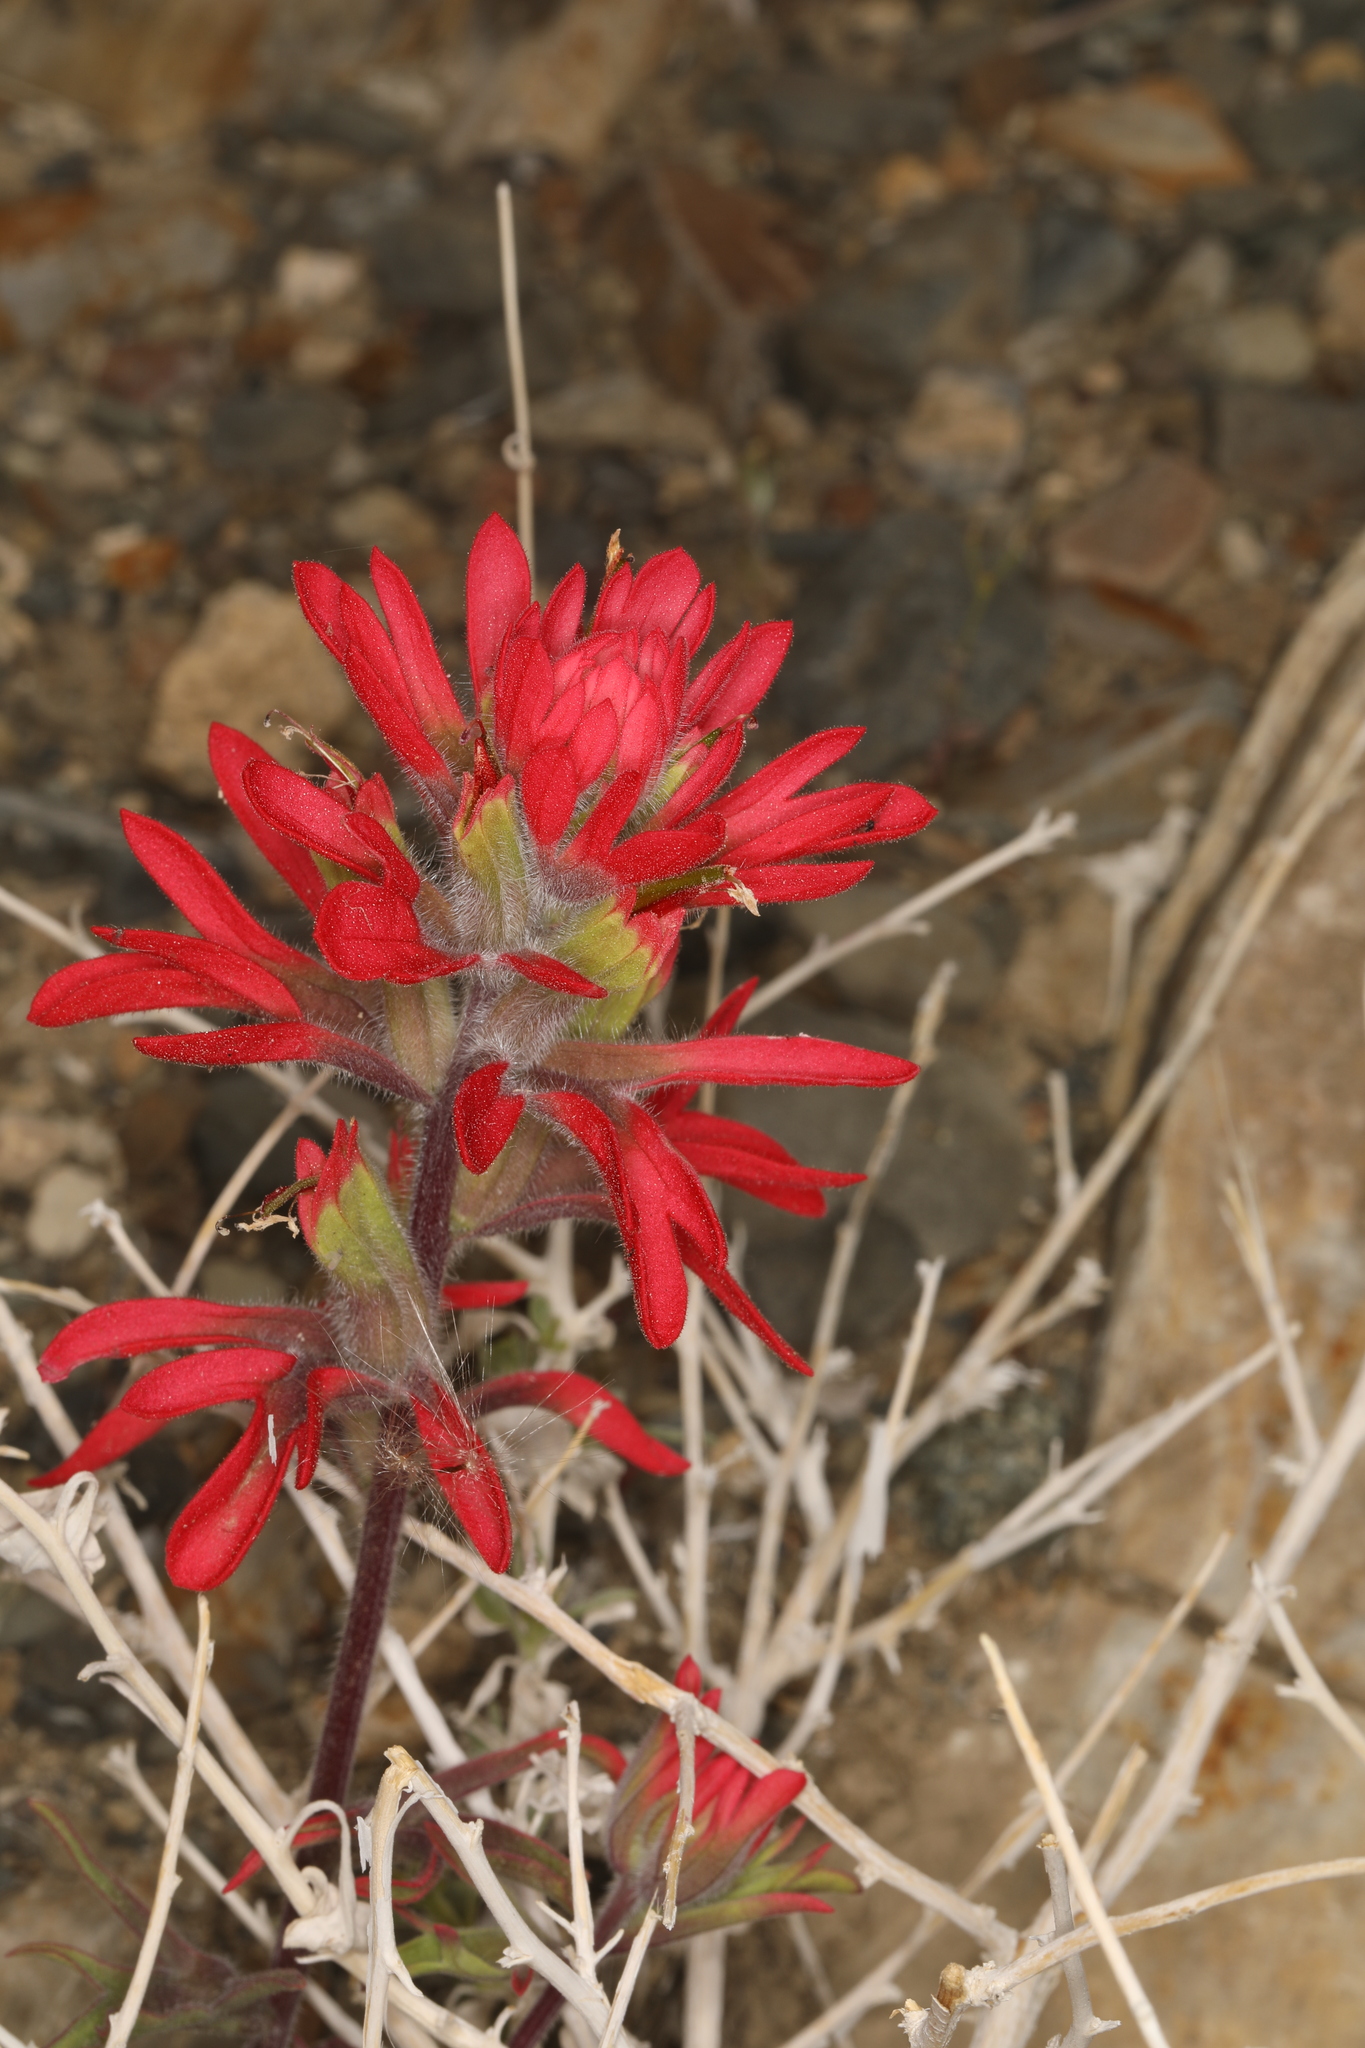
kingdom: Plantae
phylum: Tracheophyta
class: Magnoliopsida
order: Lamiales
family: Orobanchaceae
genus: Castilleja
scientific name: Castilleja chromosa
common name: Desert paintbrush
